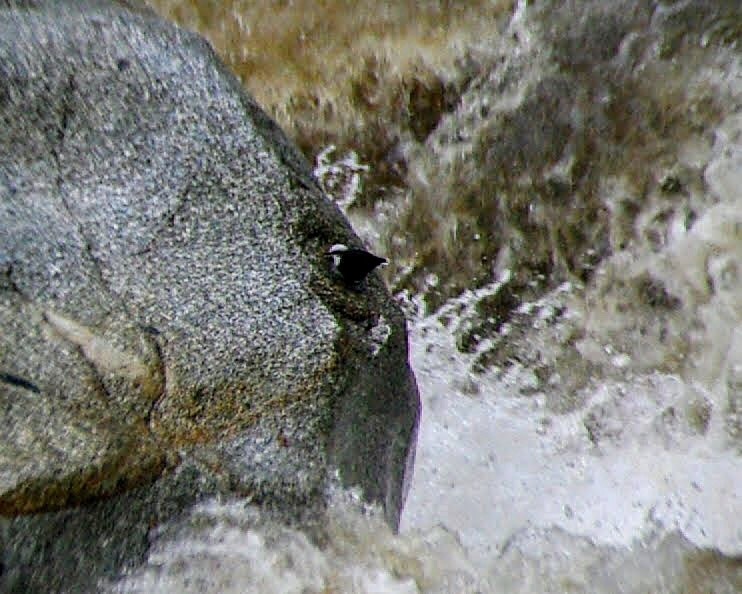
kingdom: Animalia
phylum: Chordata
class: Aves
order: Passeriformes
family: Cinclidae
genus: Cinclus
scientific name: Cinclus leucocephalus
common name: White-capped dipper
